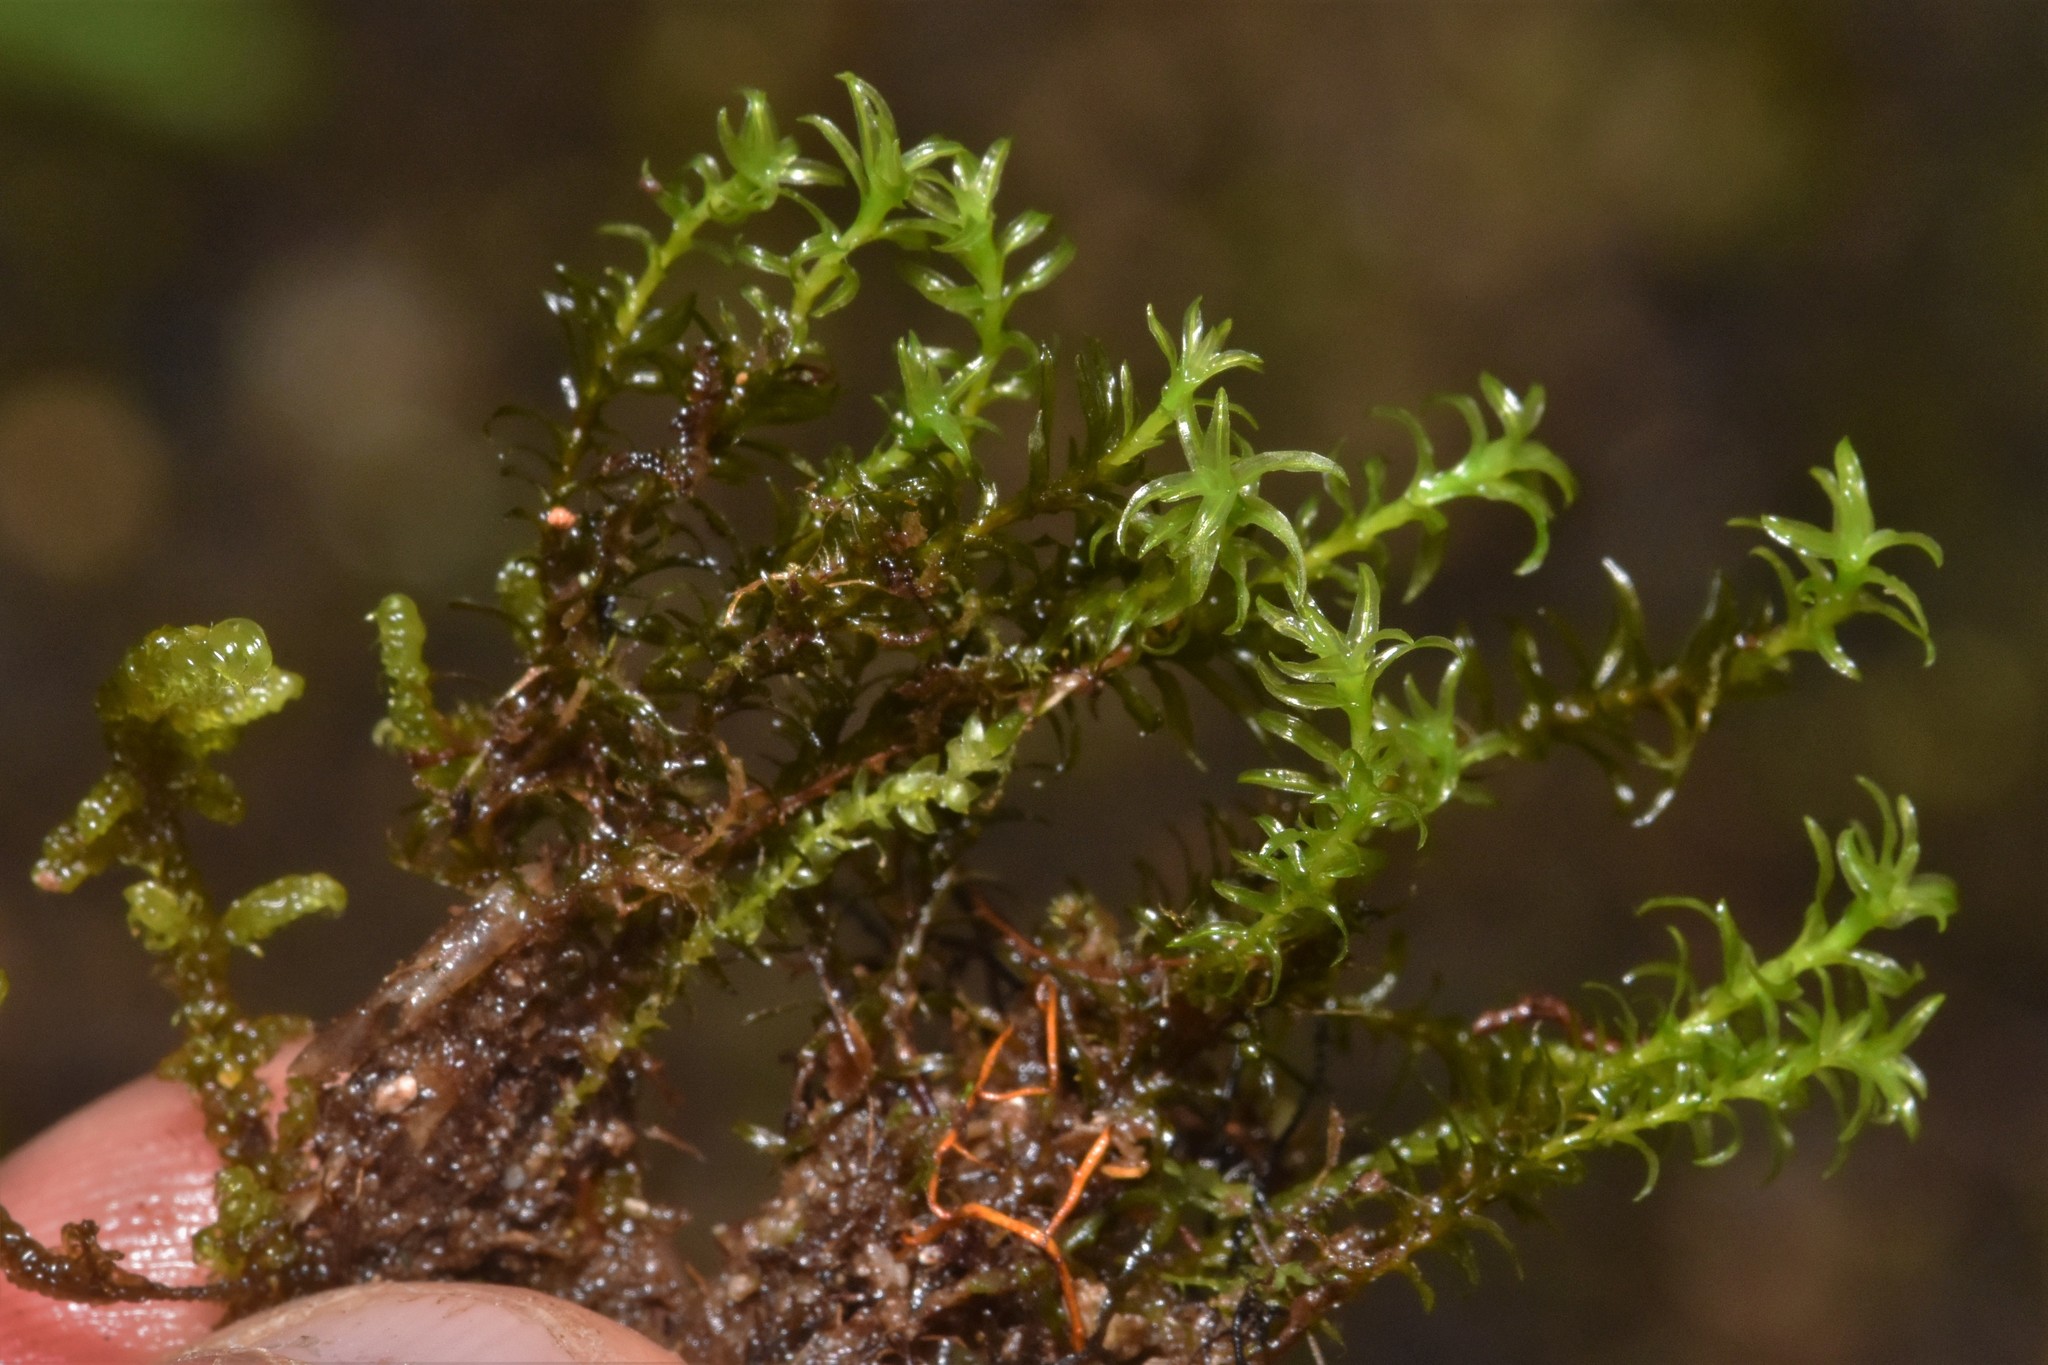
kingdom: Plantae
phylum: Bryophyta
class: Bryopsida
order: Dicranales
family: Aongstroemiaceae
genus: Dichodontium
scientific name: Dichodontium pellucidum
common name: Transparent fork moss
